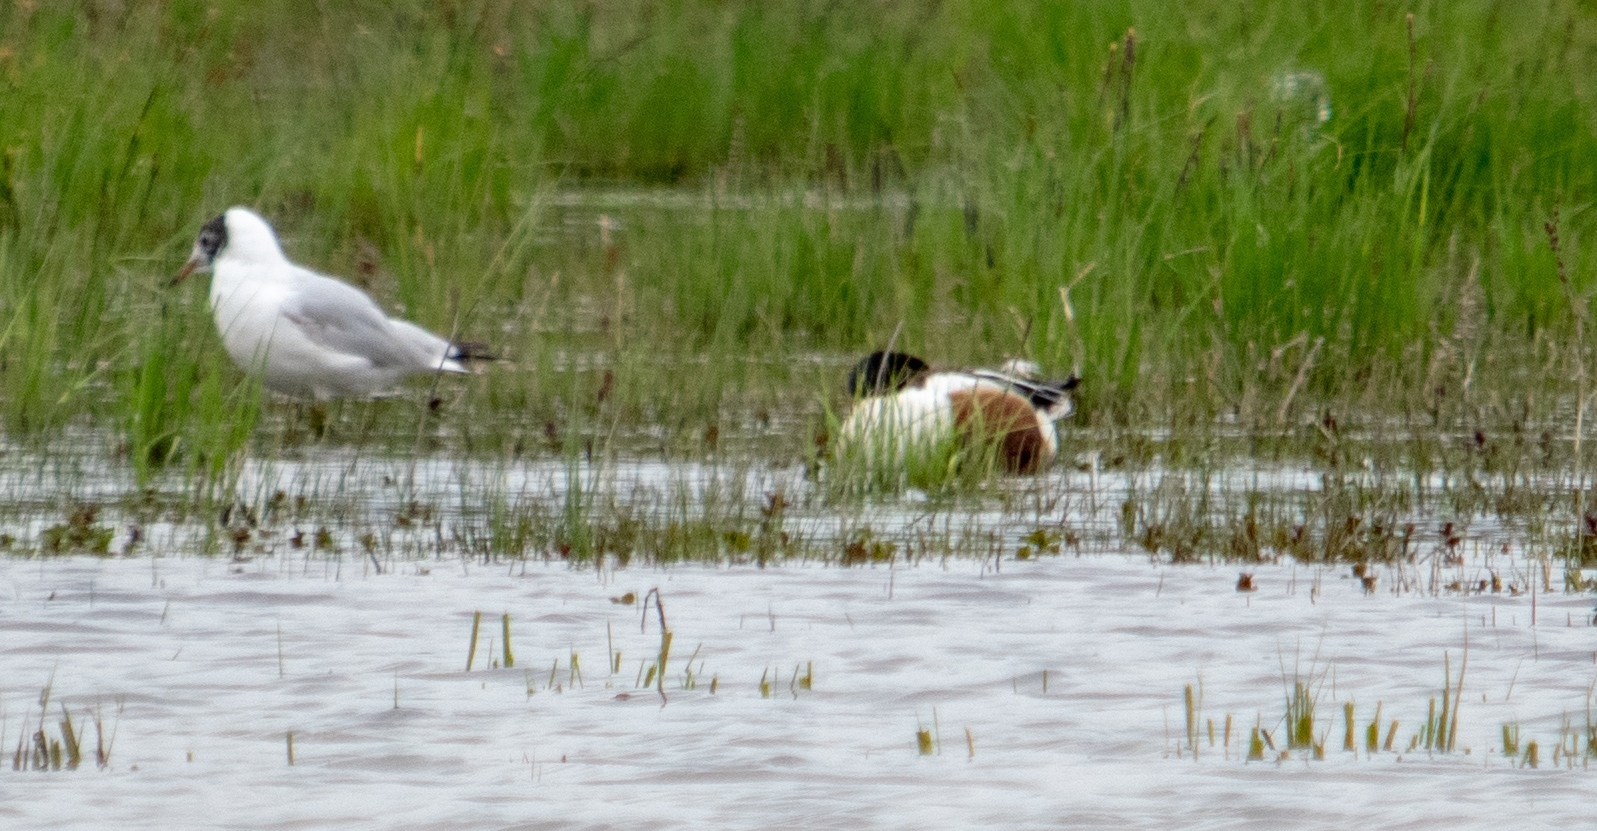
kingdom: Animalia
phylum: Chordata
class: Aves
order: Anseriformes
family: Anatidae
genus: Spatula
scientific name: Spatula clypeata
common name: Northern shoveler
